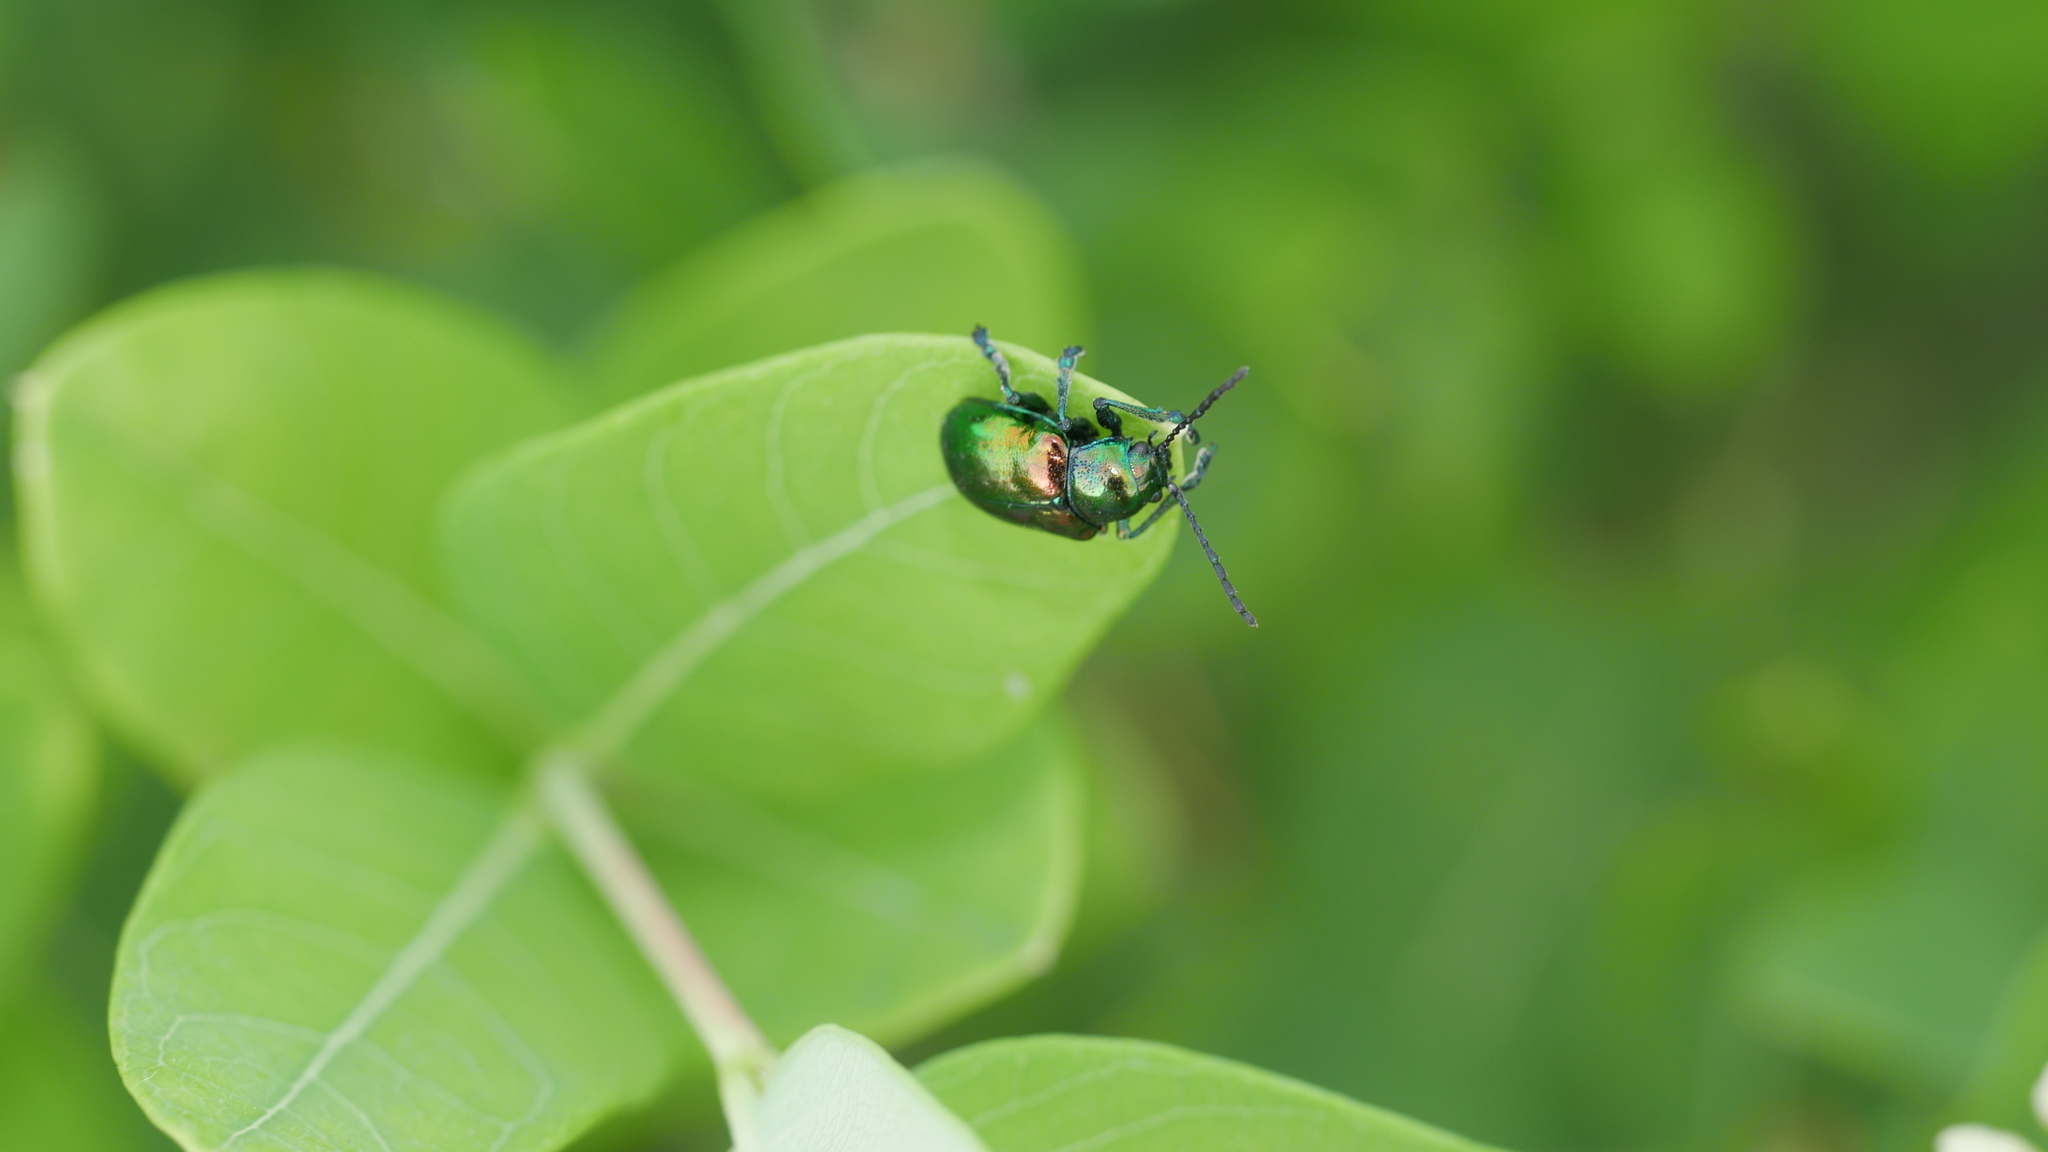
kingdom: Animalia
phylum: Arthropoda
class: Insecta
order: Coleoptera
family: Chrysomelidae
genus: Chrysochus
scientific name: Chrysochus auratus
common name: Dogbane leaf beetle
